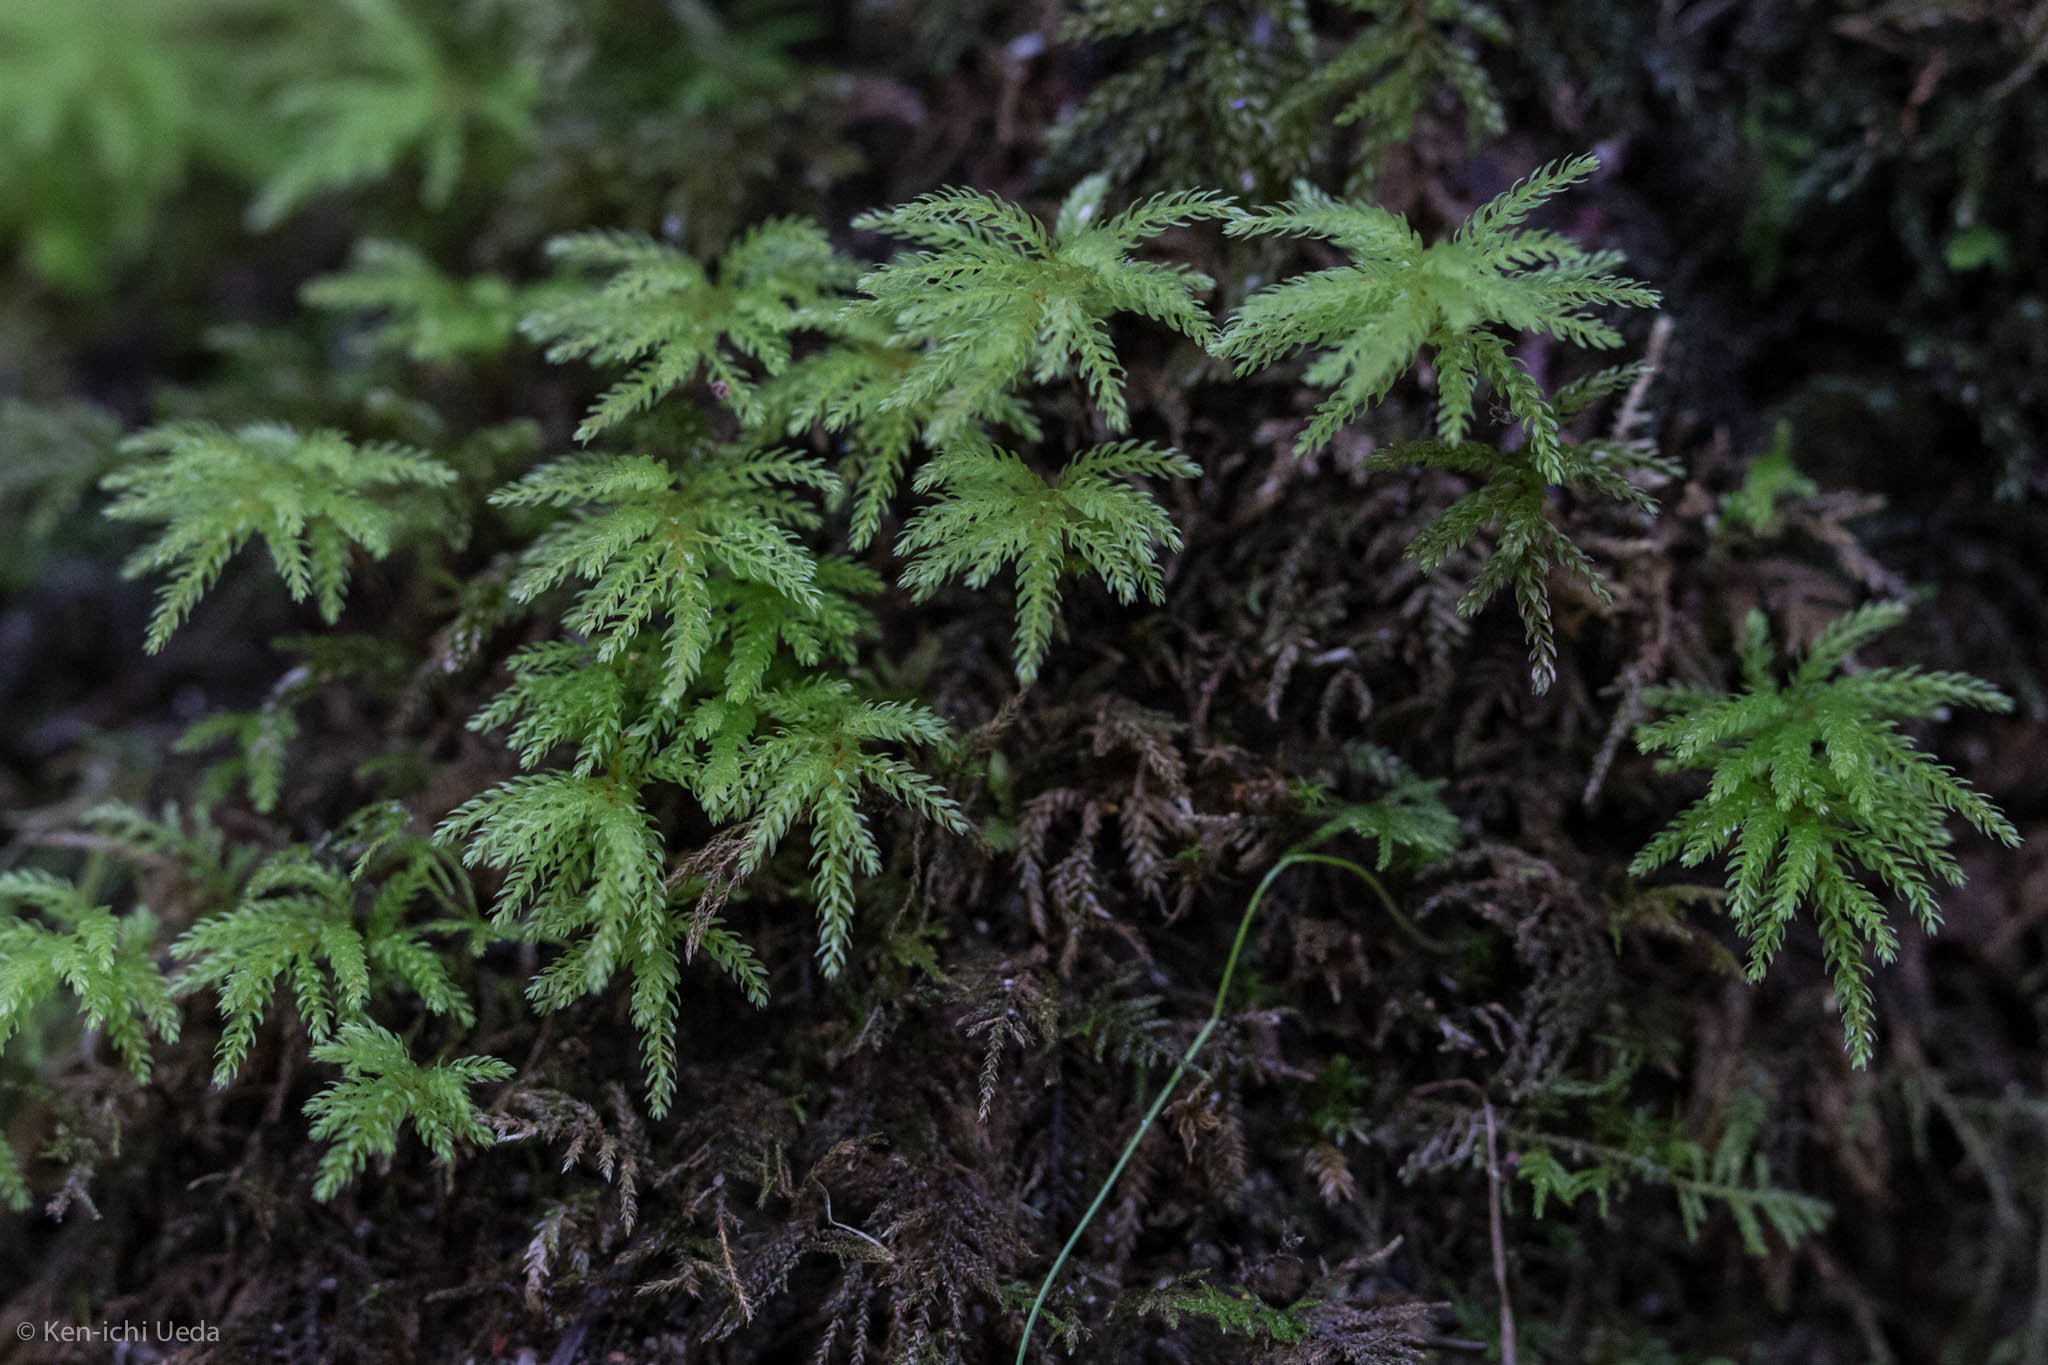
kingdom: Plantae
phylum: Bryophyta
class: Bryopsida
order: Bryales
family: Mniaceae
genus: Leucolepis
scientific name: Leucolepis acanthoneura
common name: Leucolepis umbrella moss
